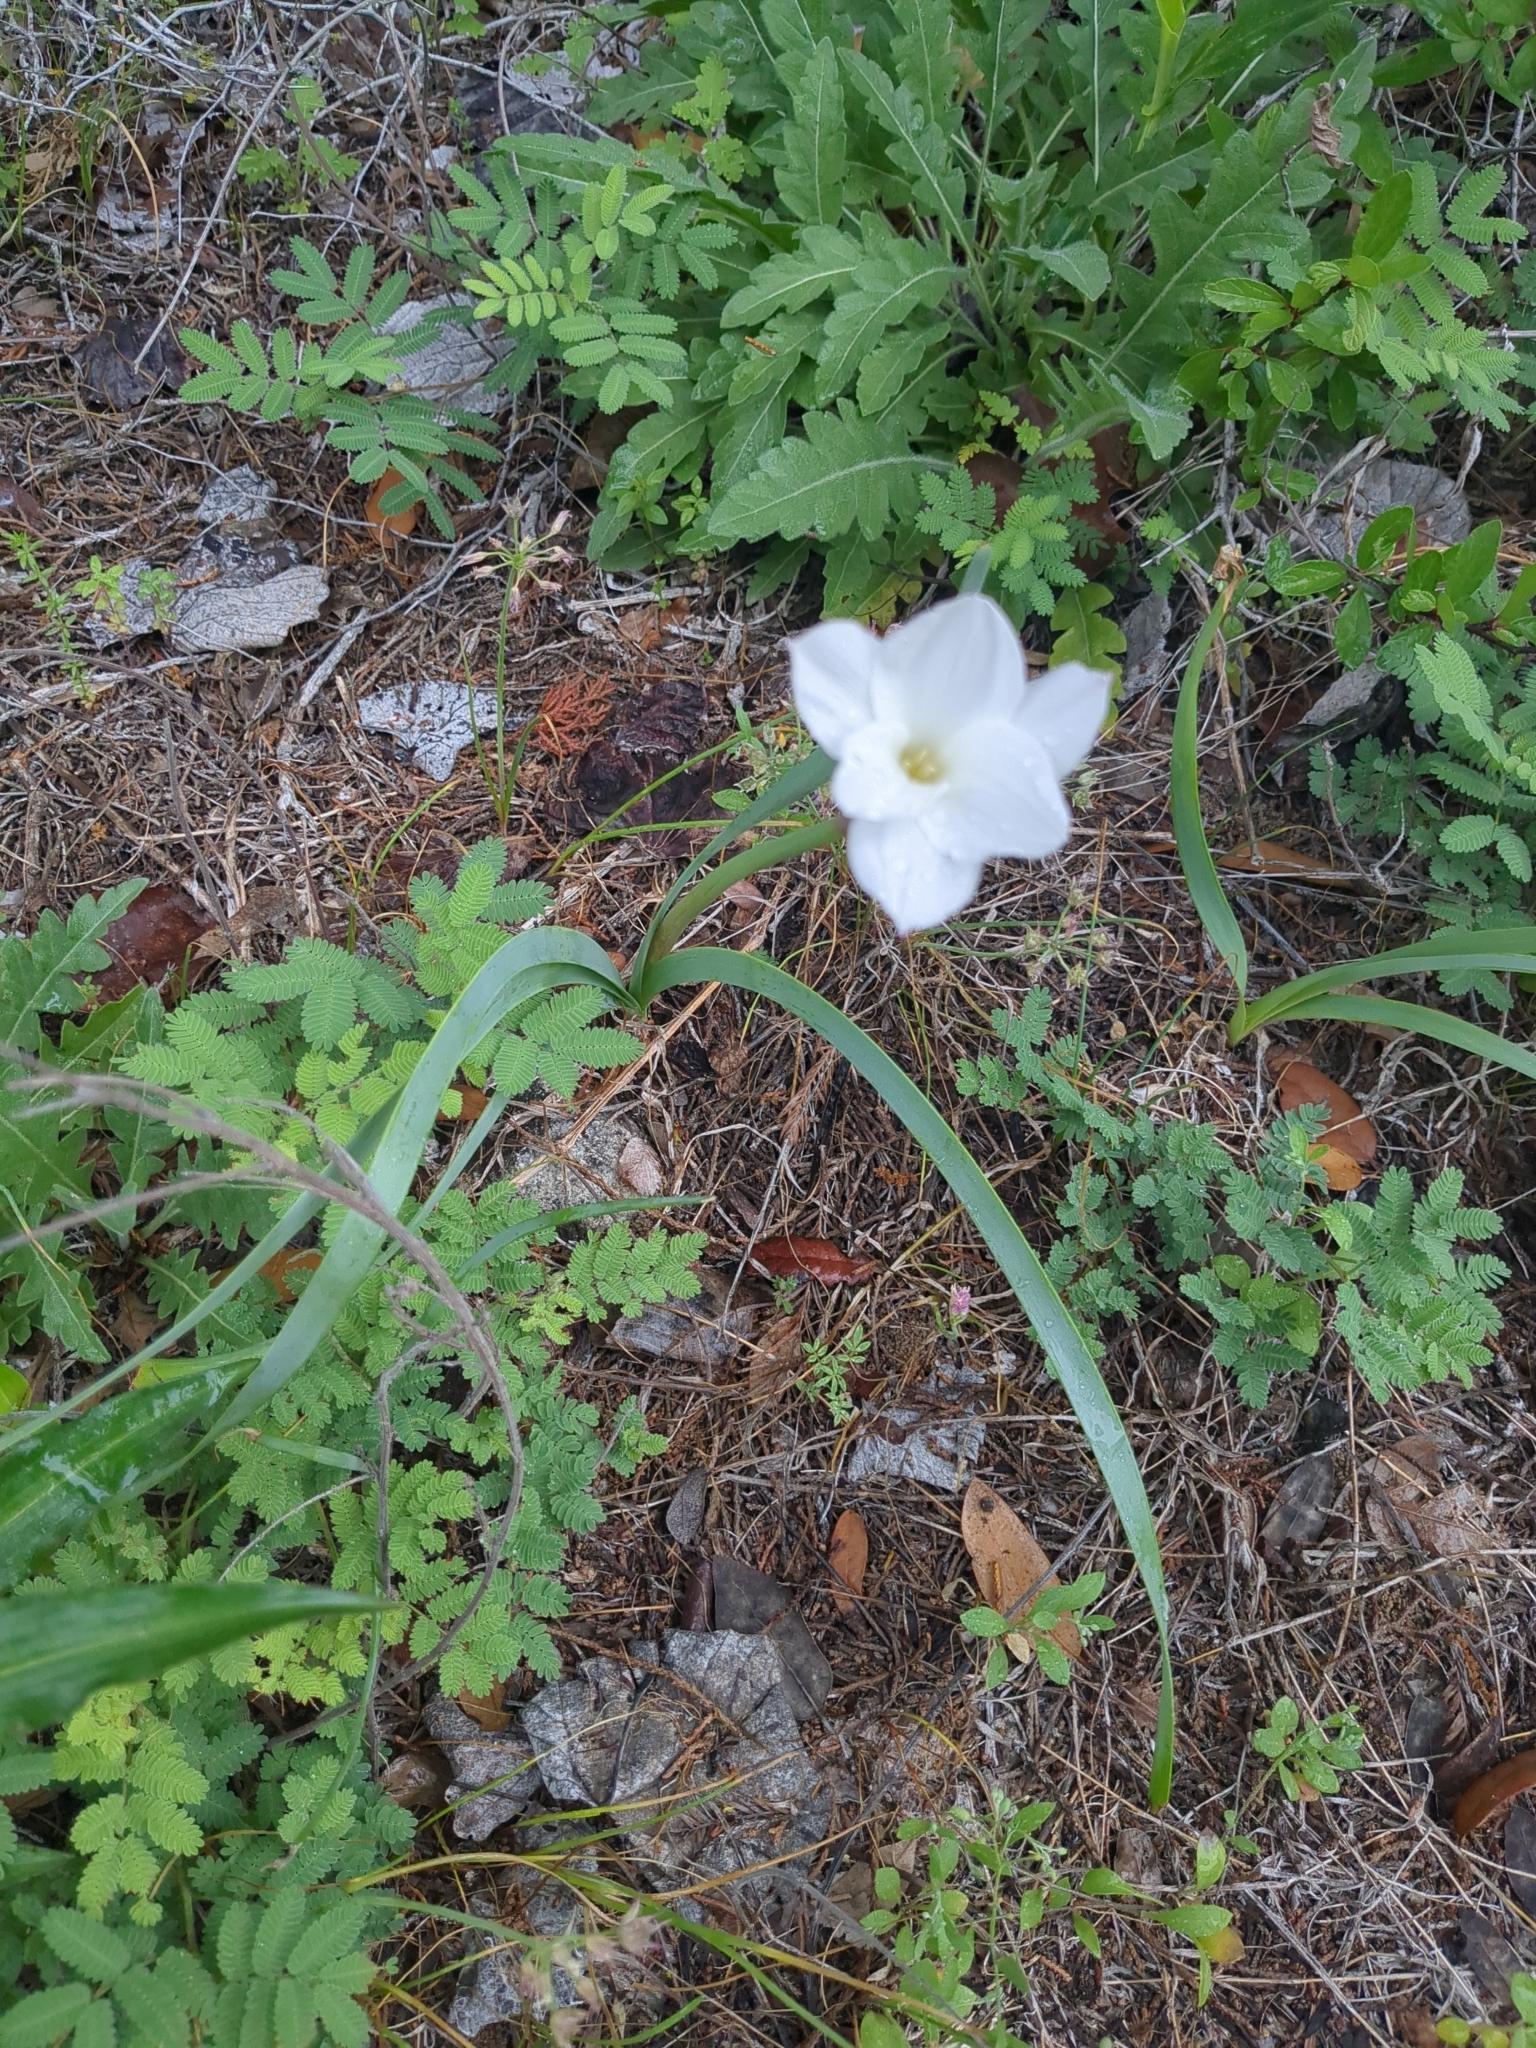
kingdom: Plantae
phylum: Tracheophyta
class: Liliopsida
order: Asparagales
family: Amaryllidaceae
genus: Zephyranthes
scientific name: Zephyranthes drummondii
